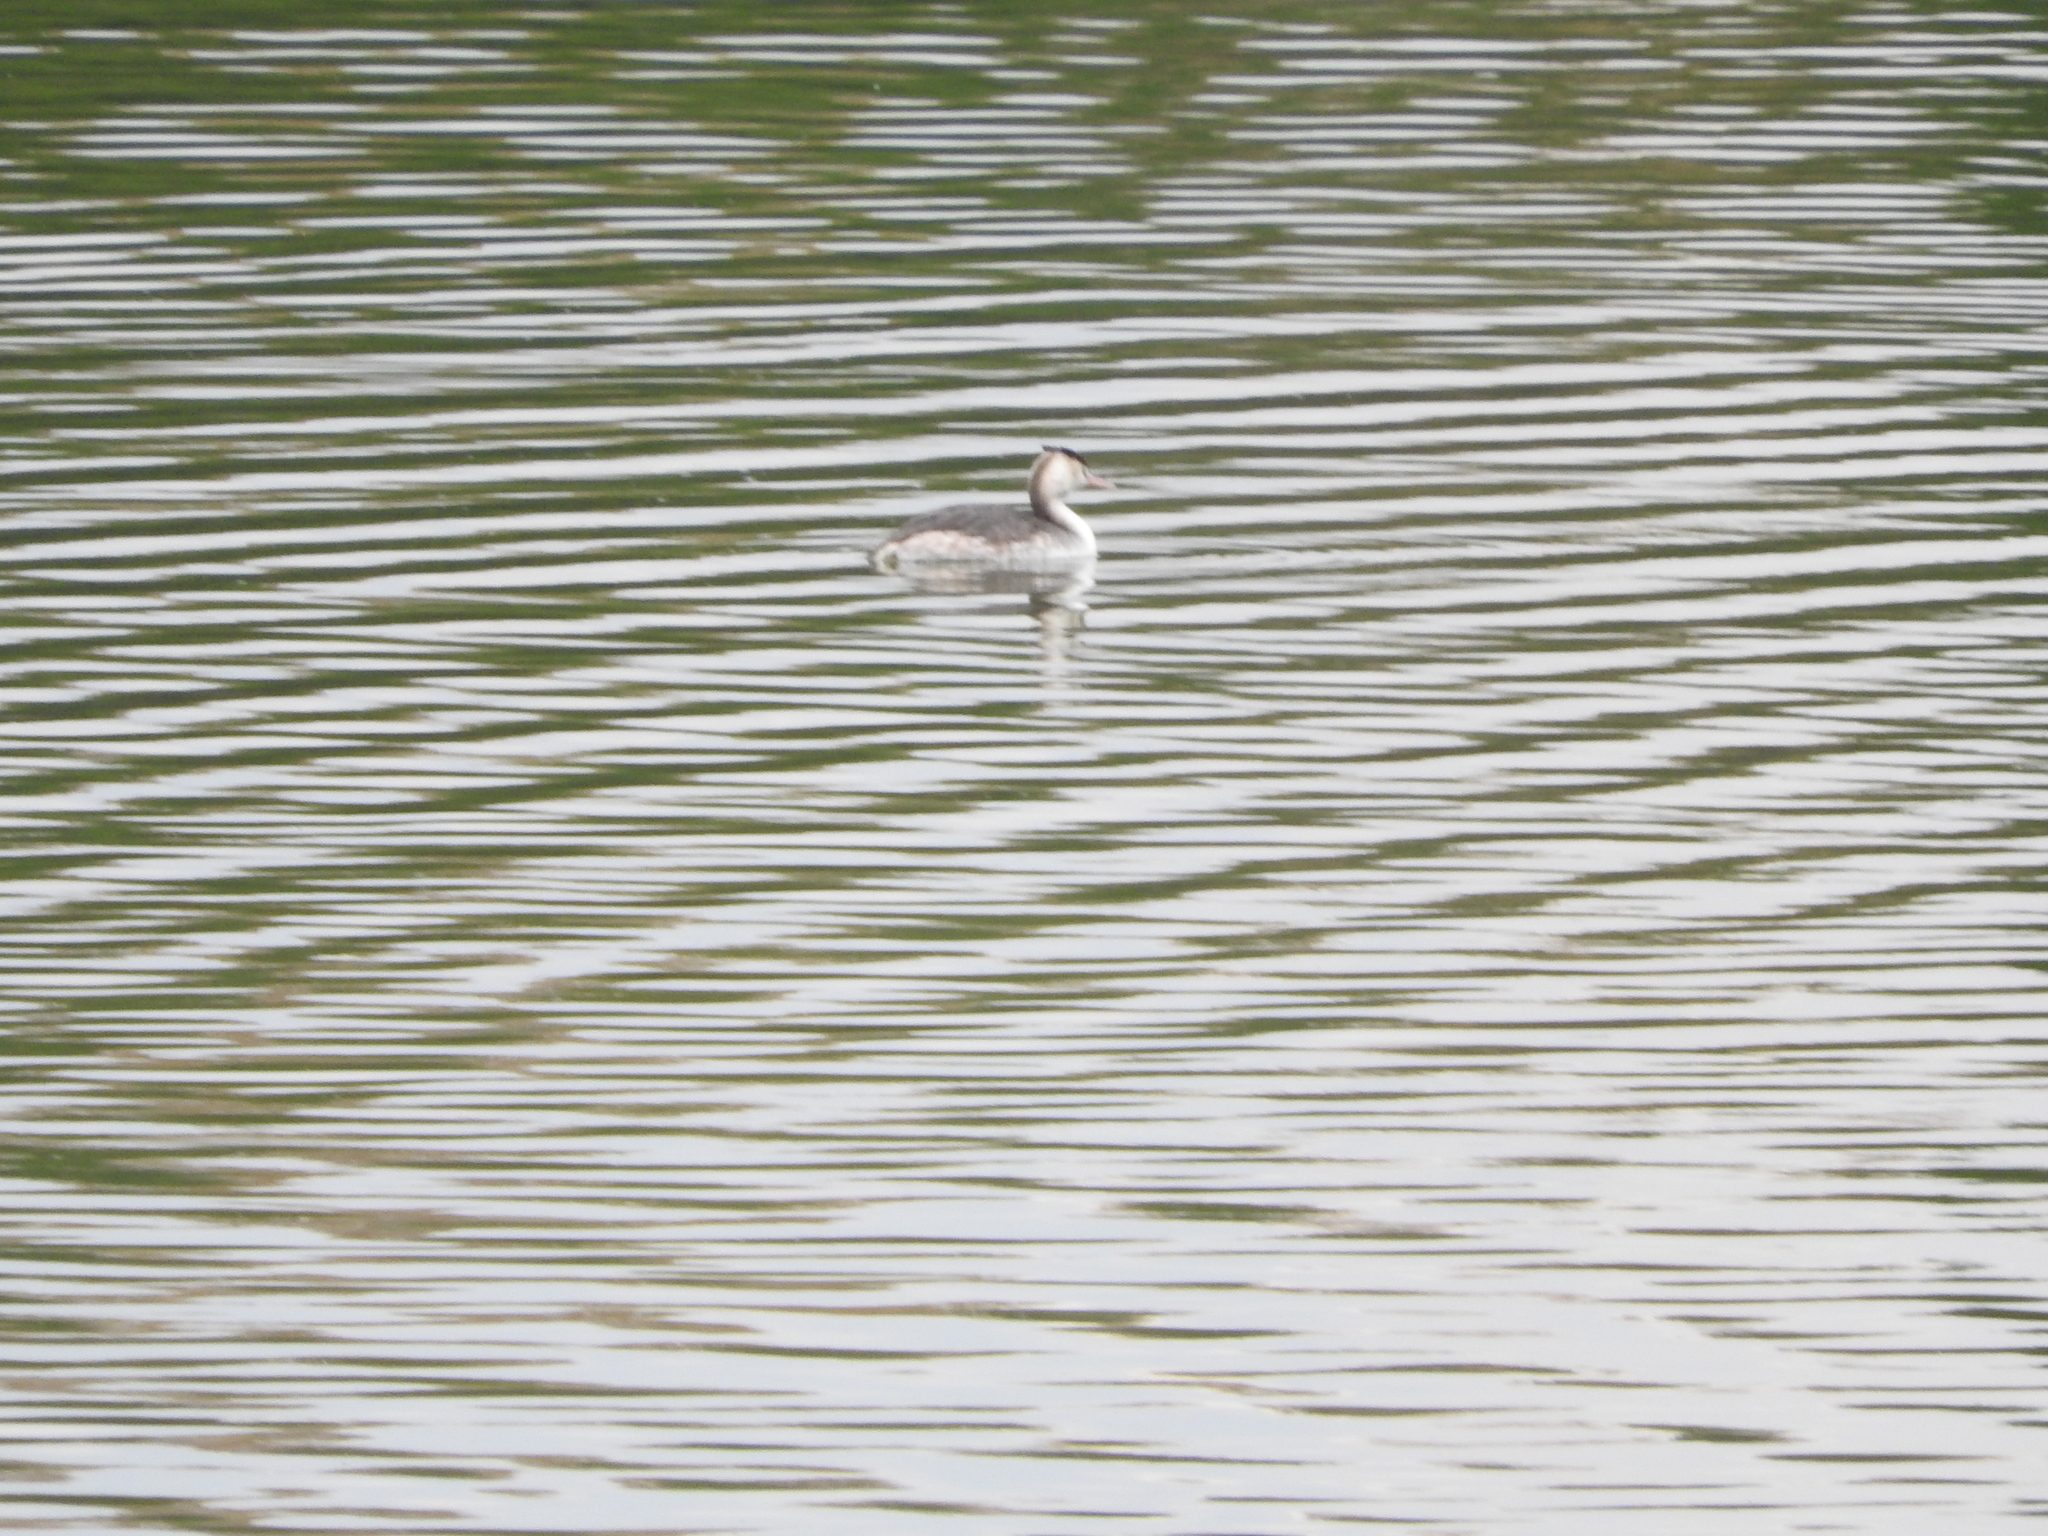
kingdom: Animalia
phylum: Chordata
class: Aves
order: Podicipediformes
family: Podicipedidae
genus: Podiceps
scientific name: Podiceps cristatus
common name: Great crested grebe
